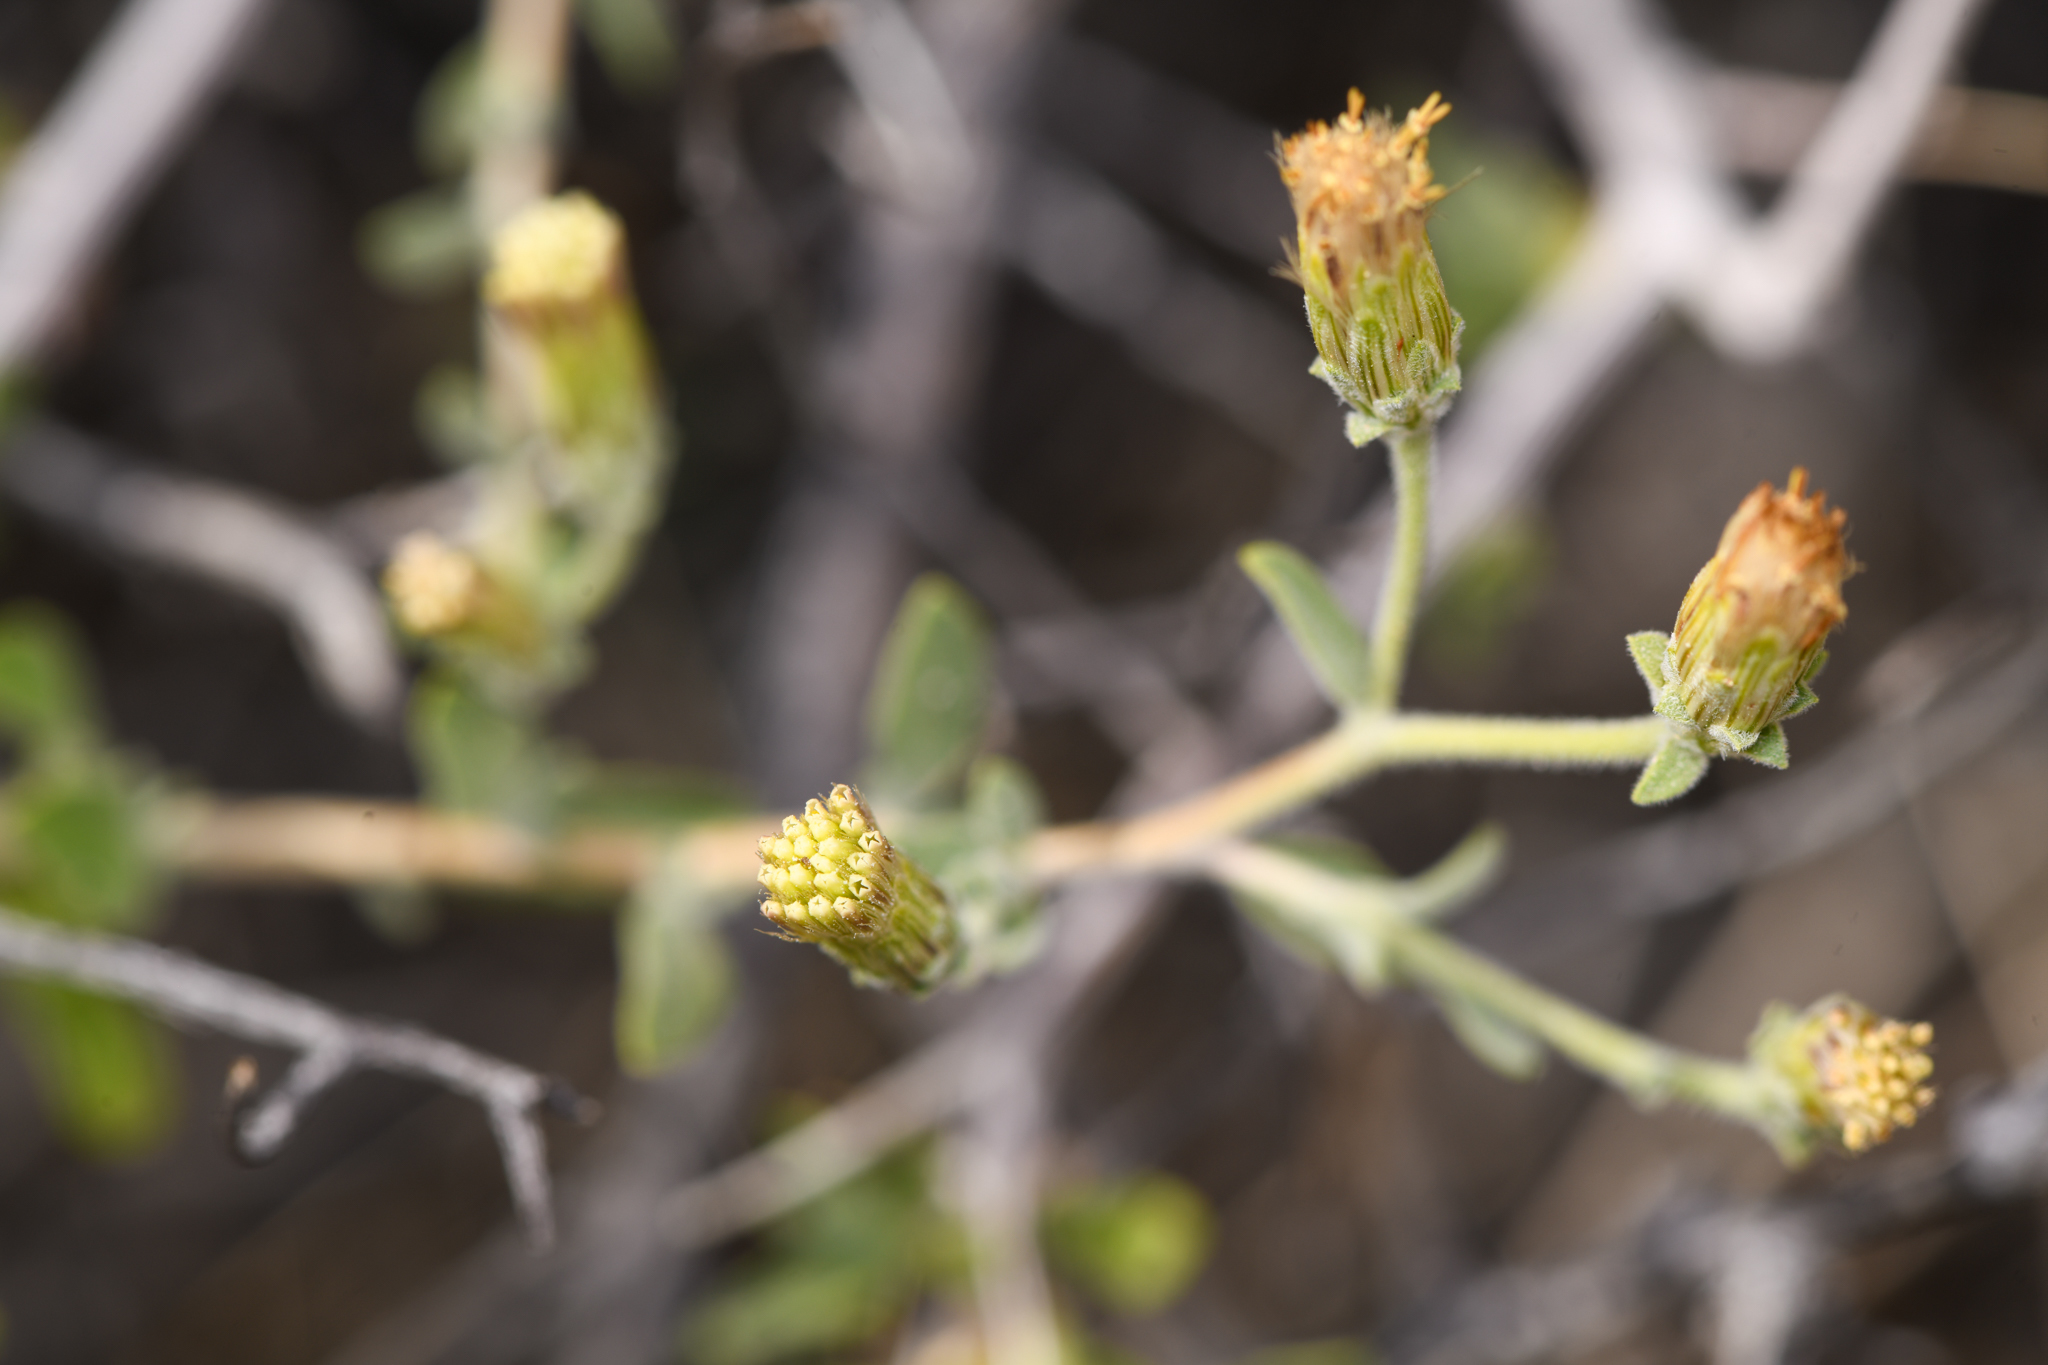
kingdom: Plantae
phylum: Tracheophyta
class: Magnoliopsida
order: Asterales
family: Asteraceae
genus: Brickellia
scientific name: Brickellia frutescens
